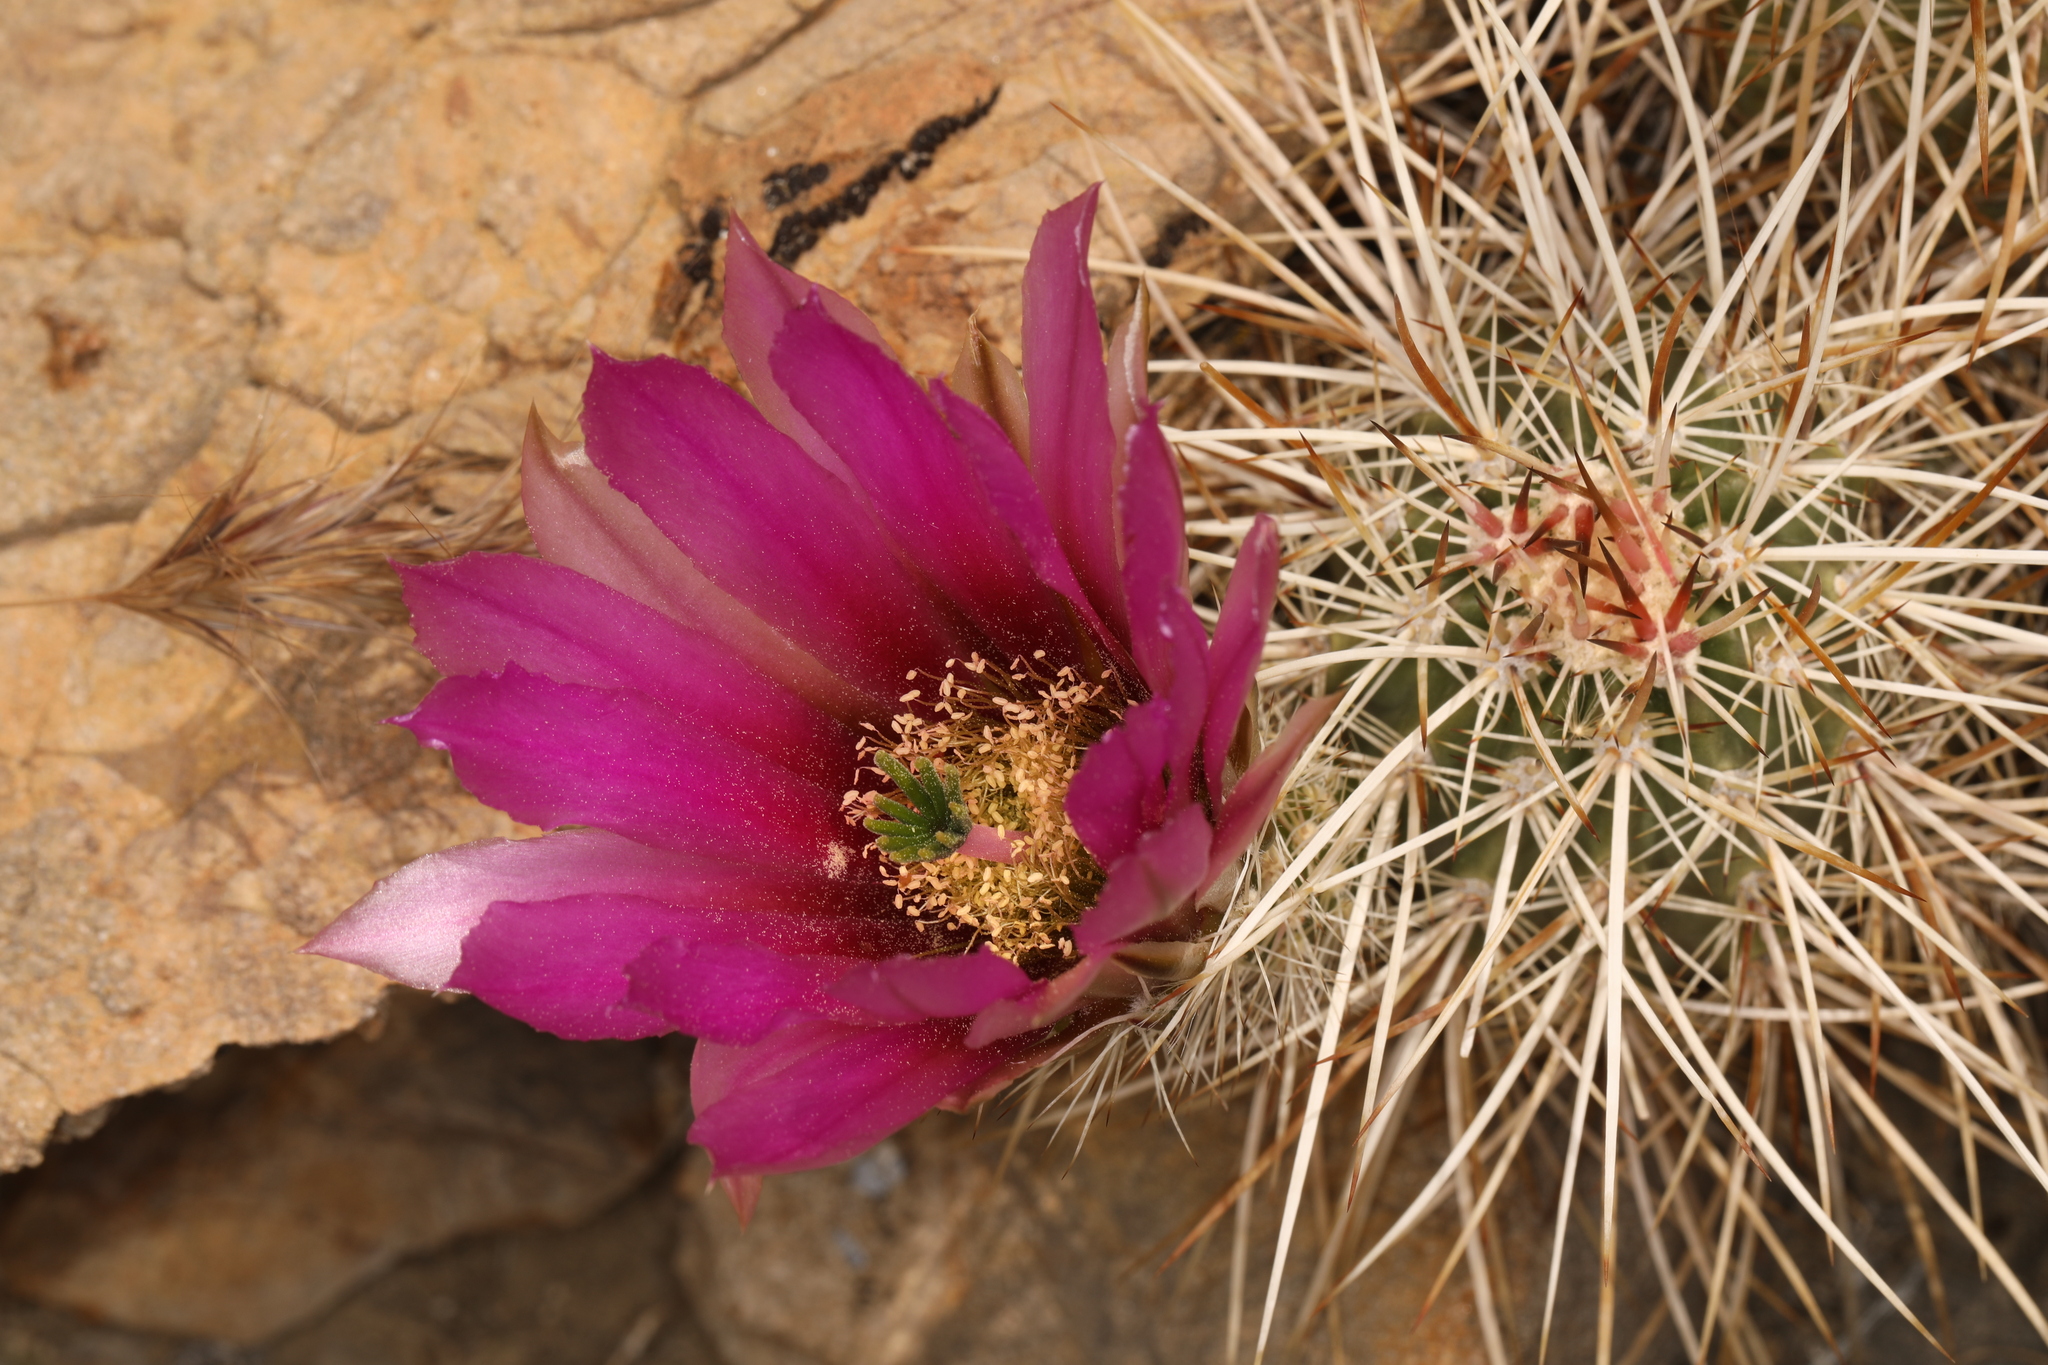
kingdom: Plantae
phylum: Tracheophyta
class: Magnoliopsida
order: Caryophyllales
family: Cactaceae
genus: Echinocereus
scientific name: Echinocereus engelmannii
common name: Engelmann's hedgehog cactus
